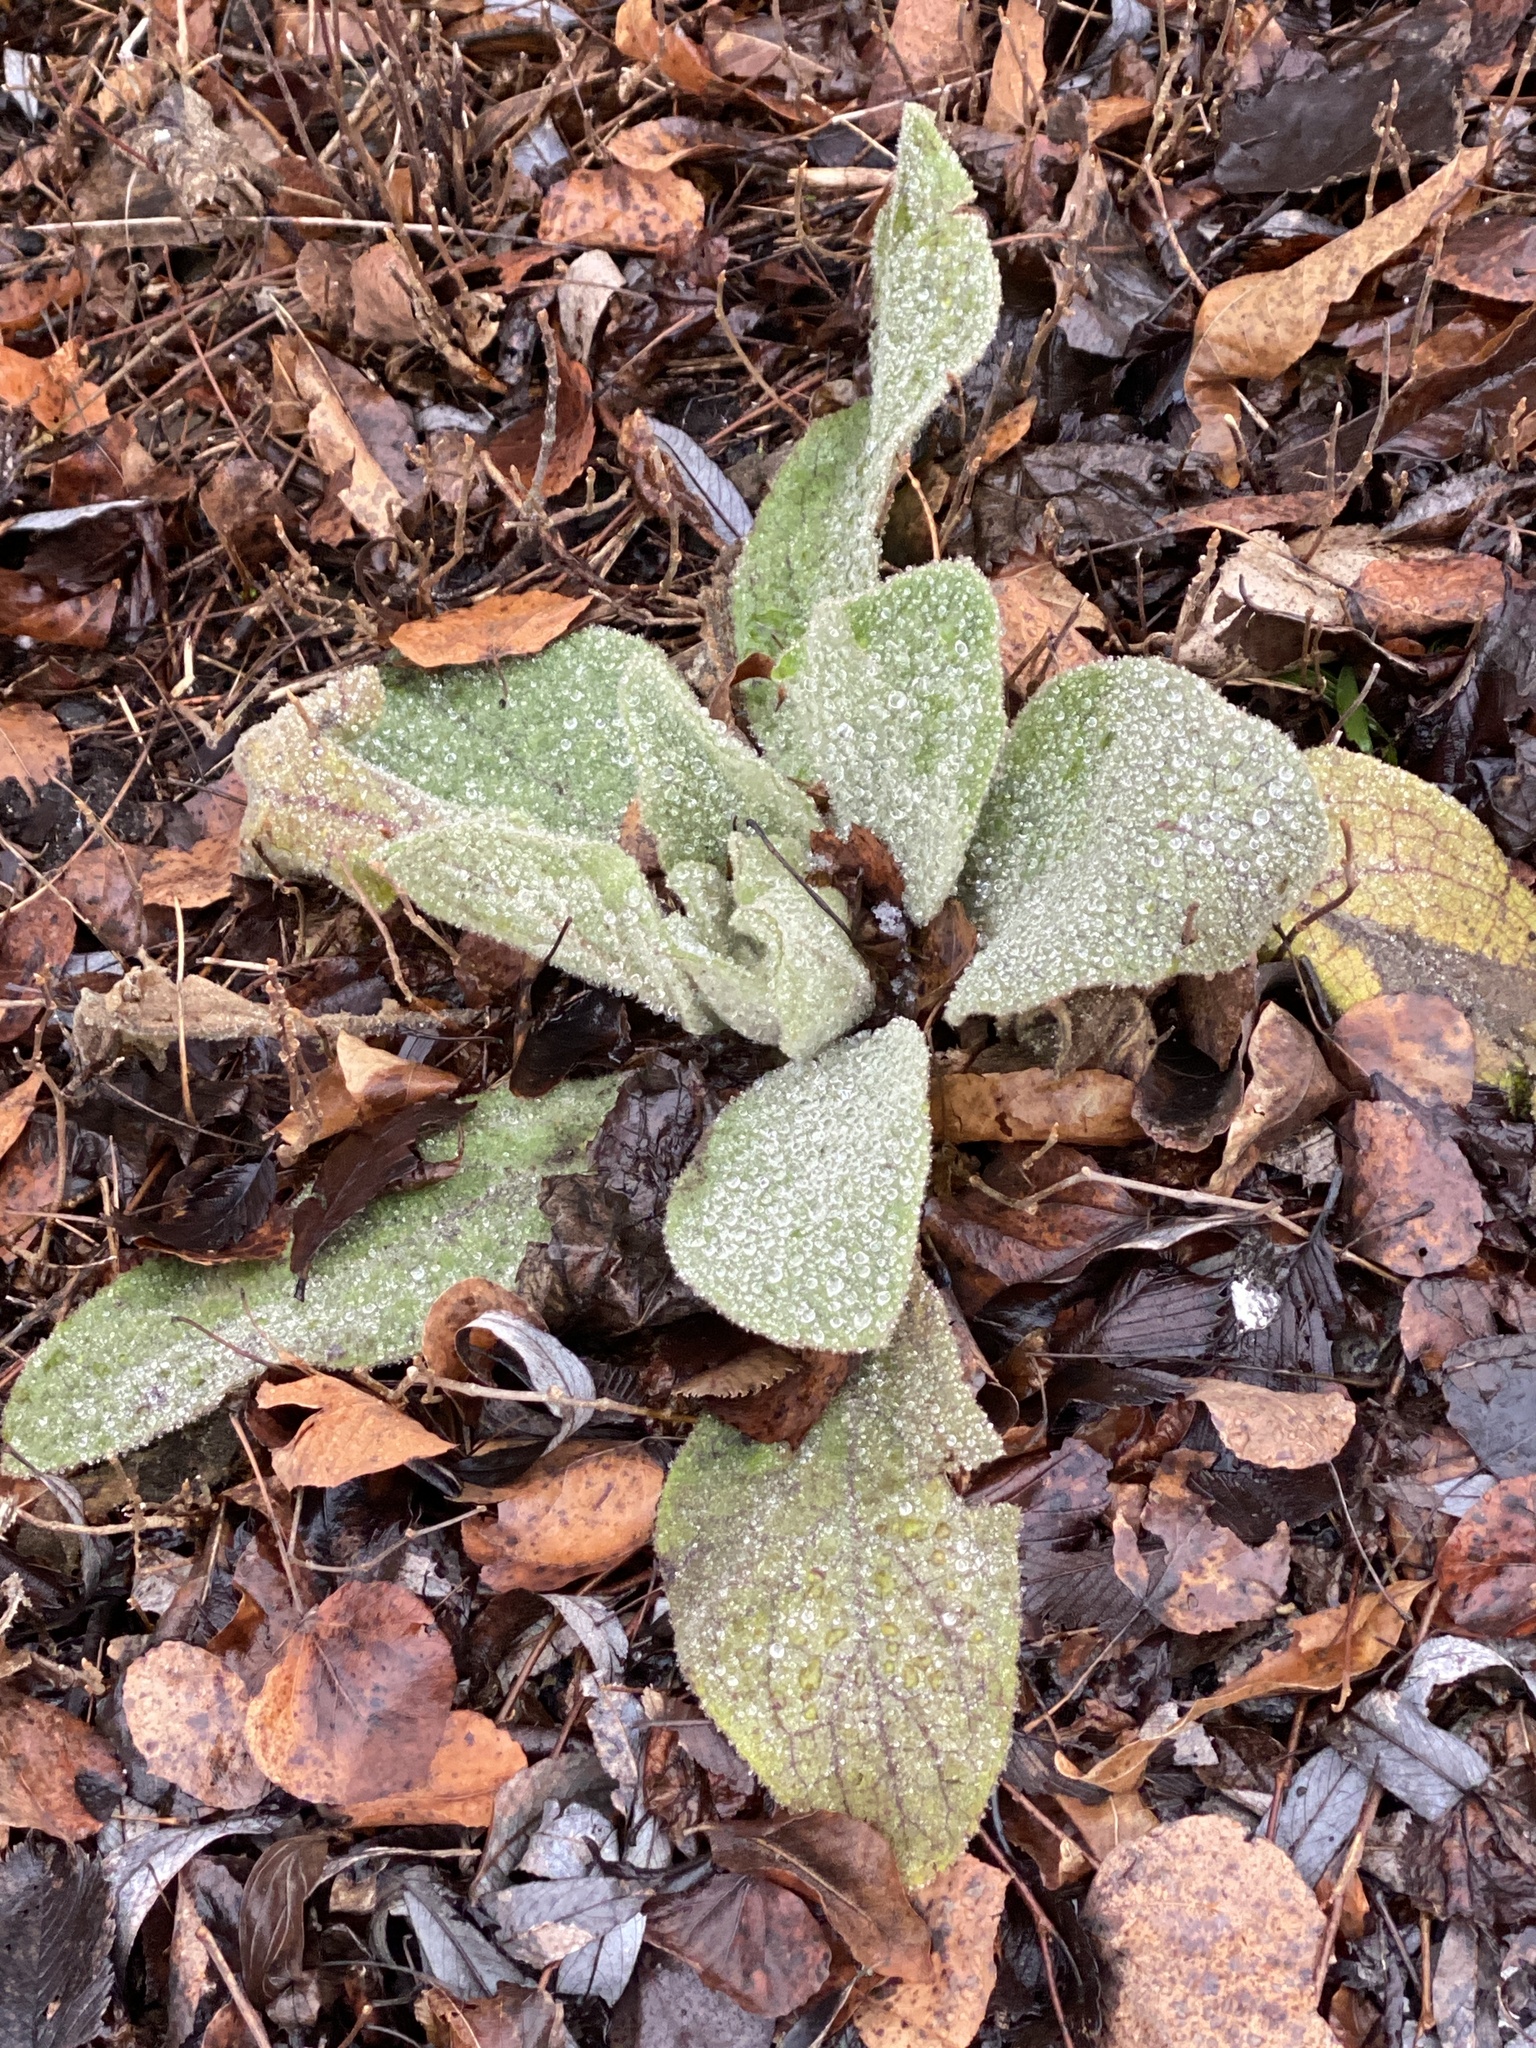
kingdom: Plantae
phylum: Tracheophyta
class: Magnoliopsida
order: Lamiales
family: Scrophulariaceae
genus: Verbascum
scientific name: Verbascum thapsus
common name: Common mullein
